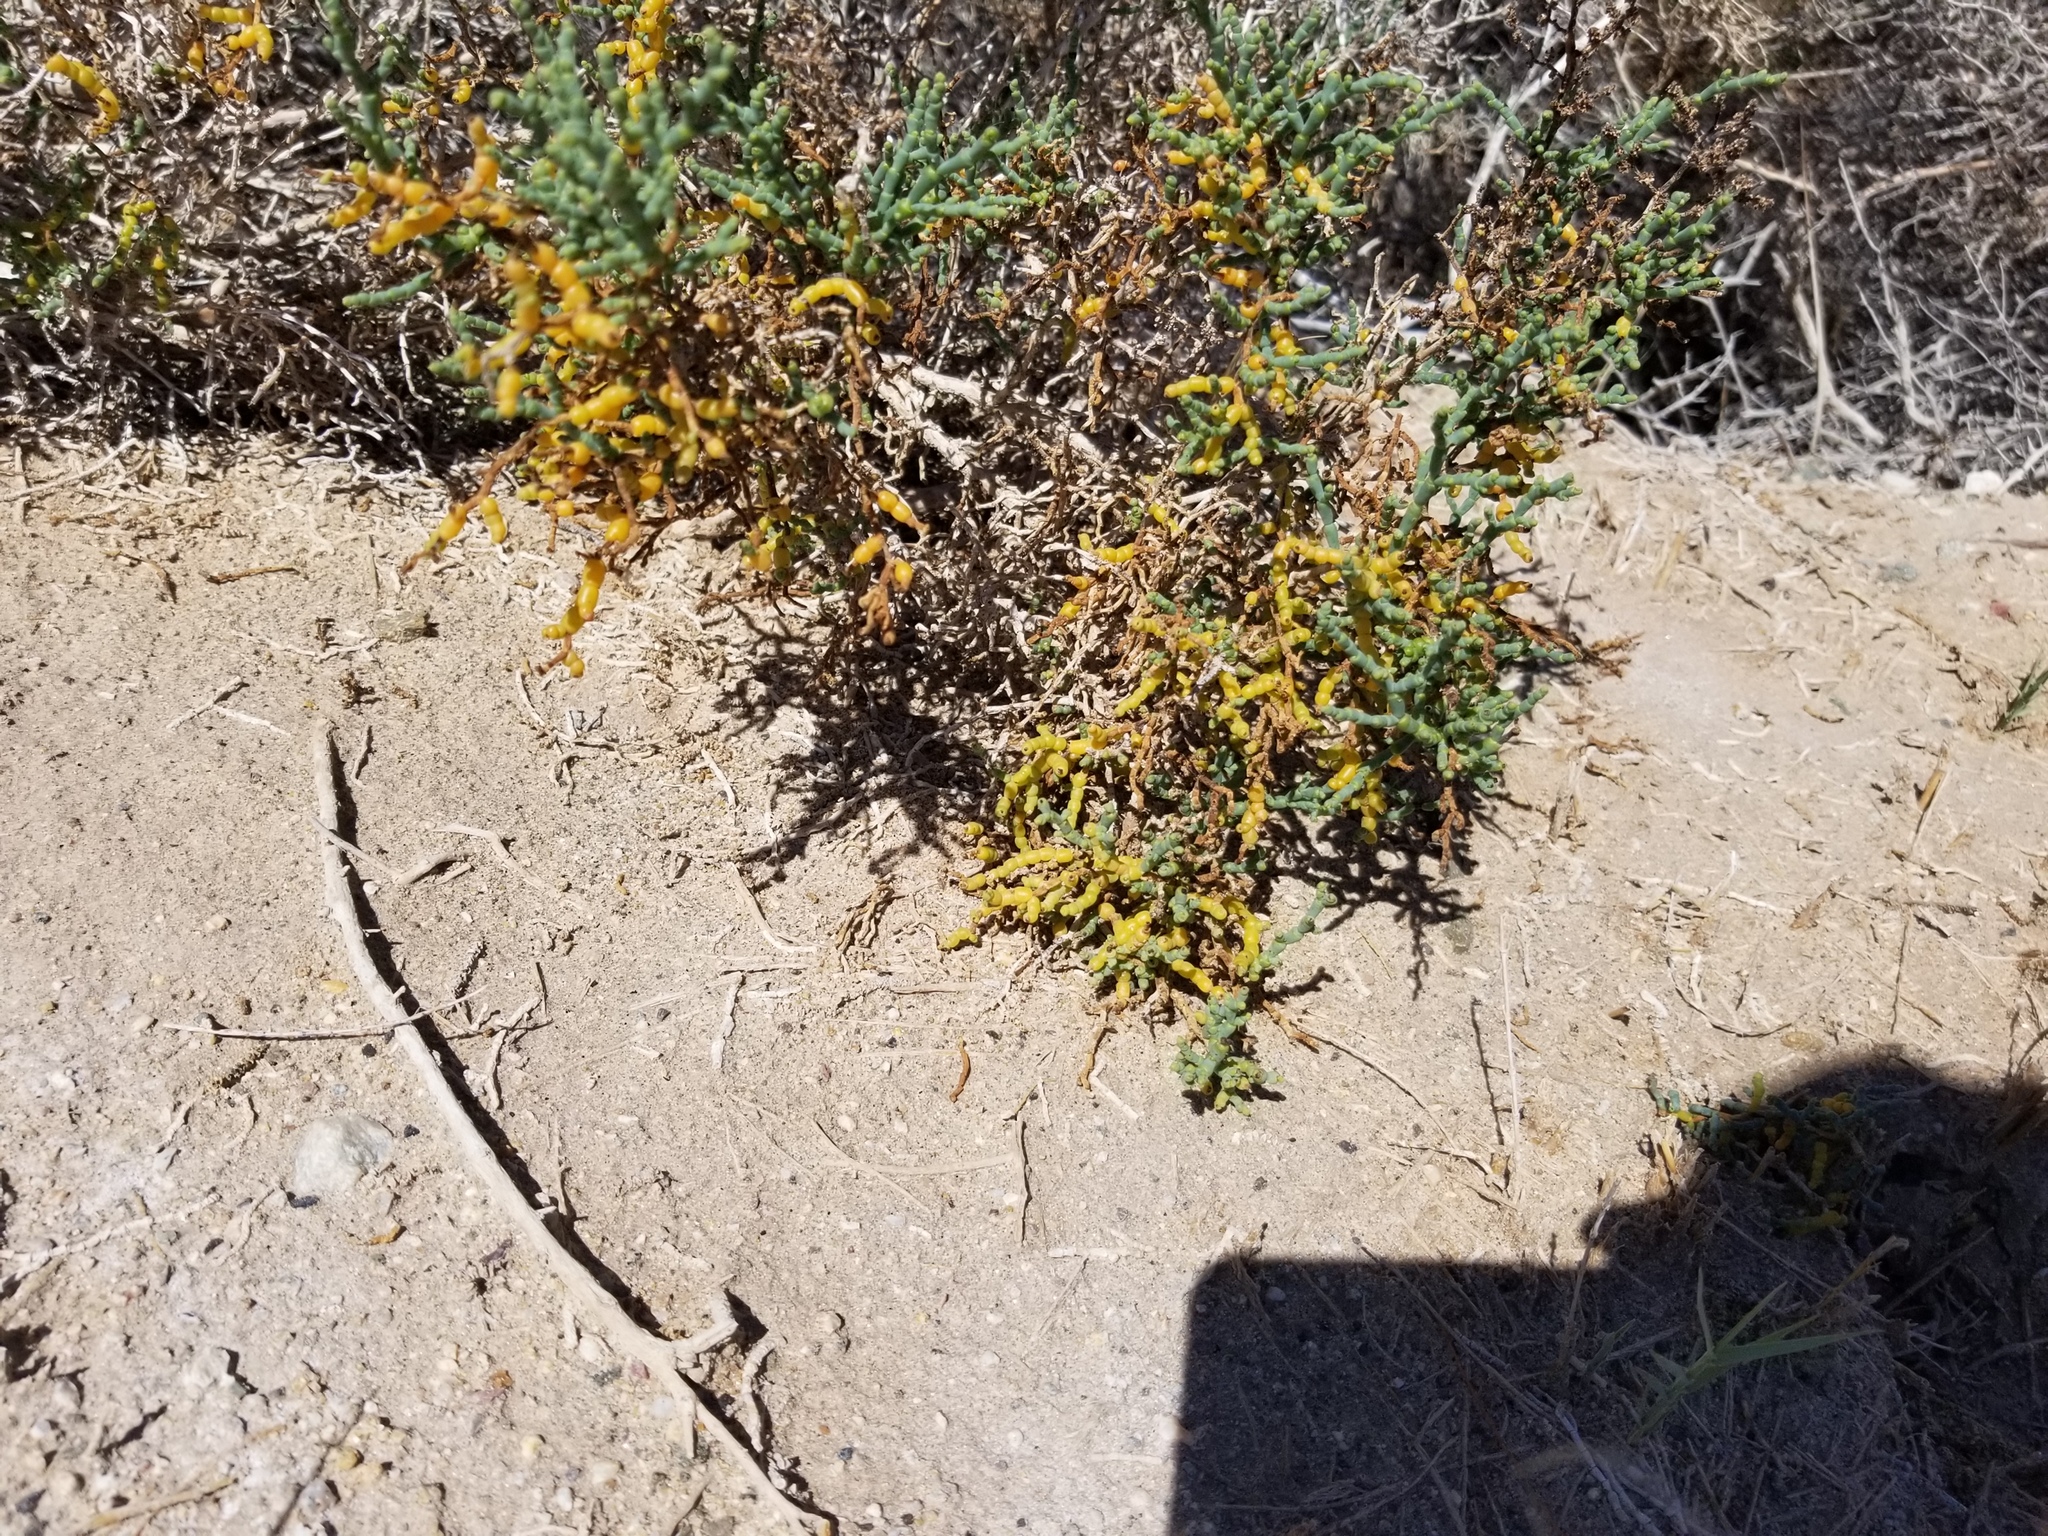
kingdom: Plantae
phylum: Tracheophyta
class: Magnoliopsida
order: Caryophyllales
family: Amaranthaceae
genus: Allenrolfea
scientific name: Allenrolfea occidentalis
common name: Iodine-bush
